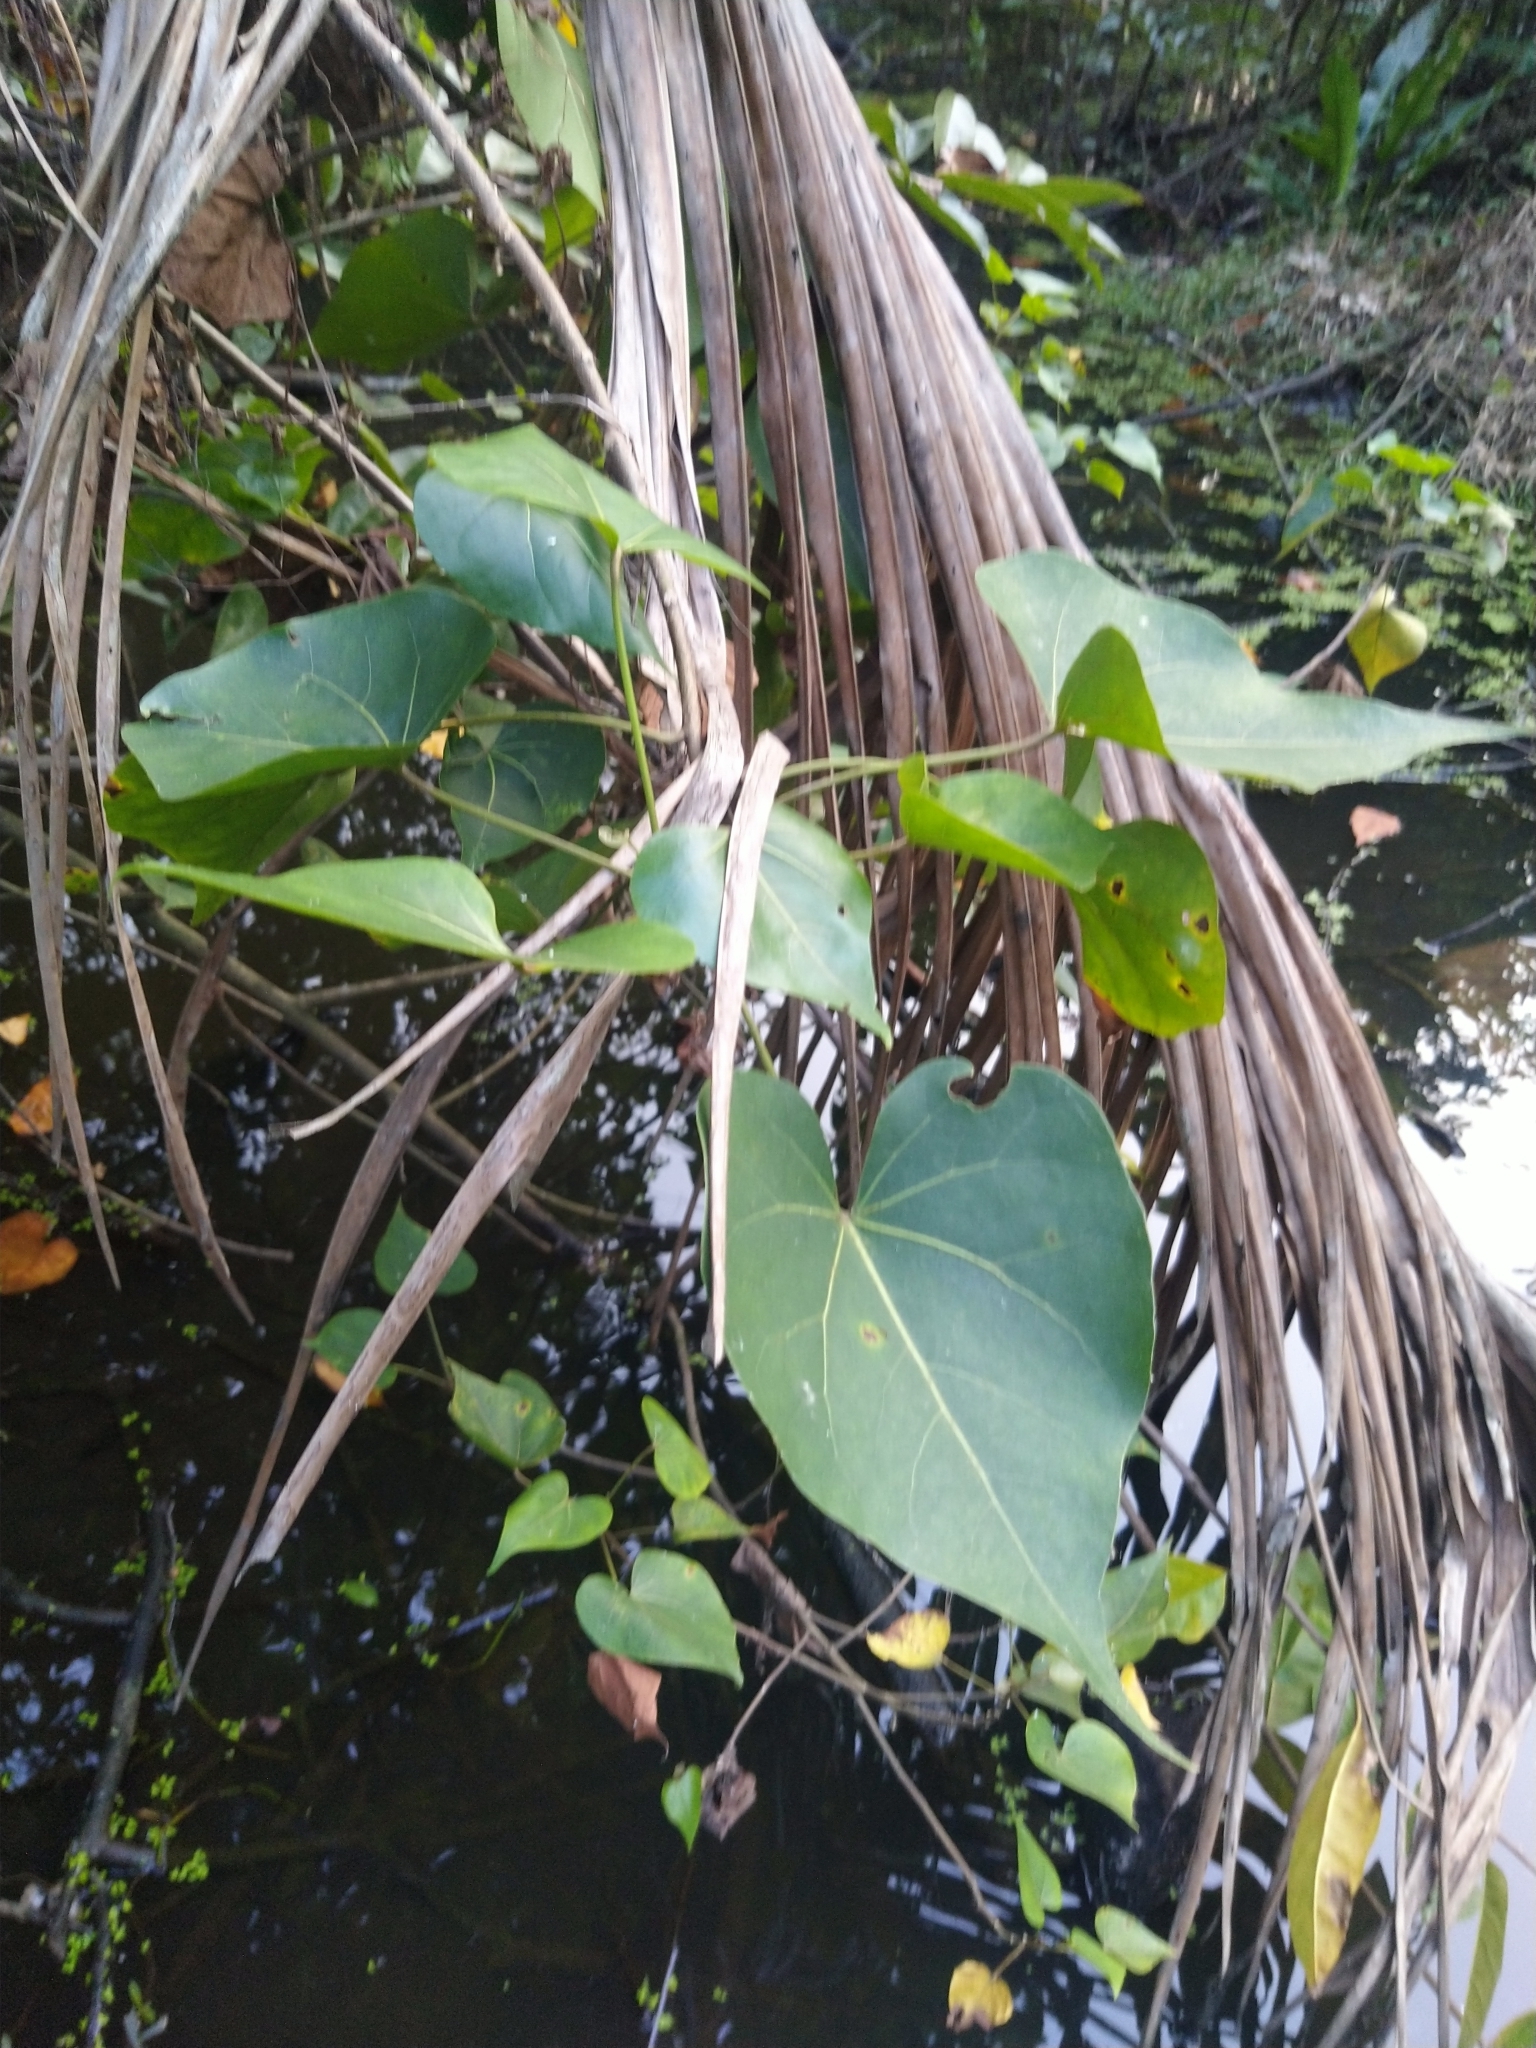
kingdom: Plantae
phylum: Tracheophyta
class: Magnoliopsida
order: Malvales
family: Malvaceae
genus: Thespesia
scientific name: Thespesia populnea
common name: Seaside mahoe
